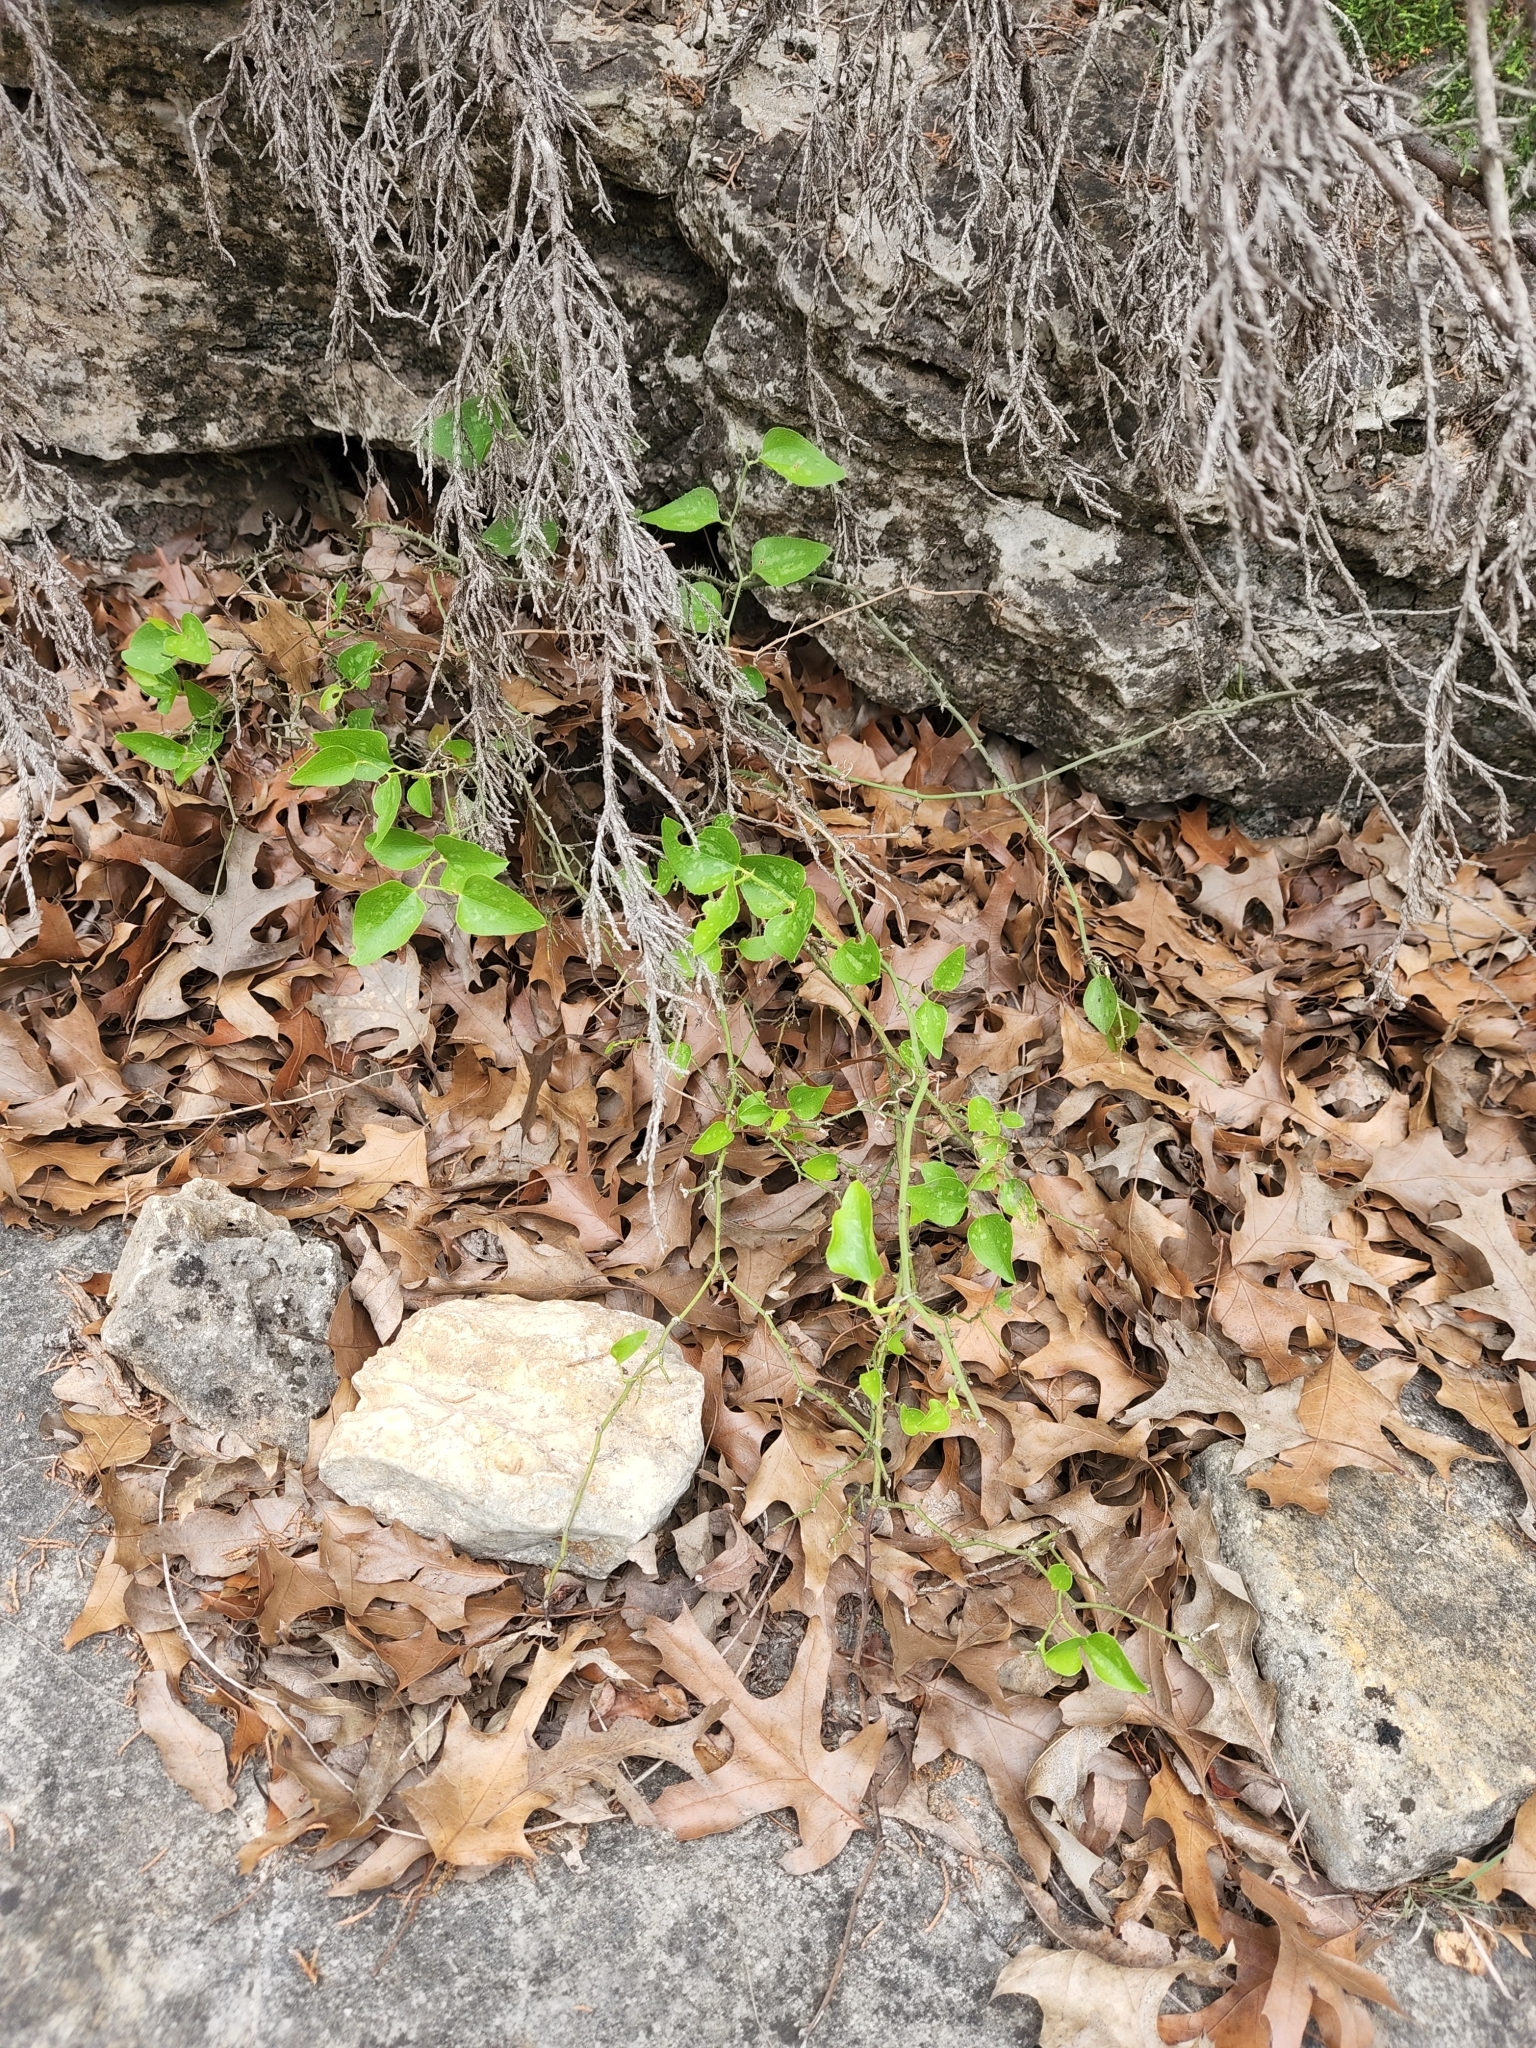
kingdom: Plantae
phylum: Tracheophyta
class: Liliopsida
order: Liliales
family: Smilacaceae
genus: Smilax
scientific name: Smilax bona-nox
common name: Catbrier
